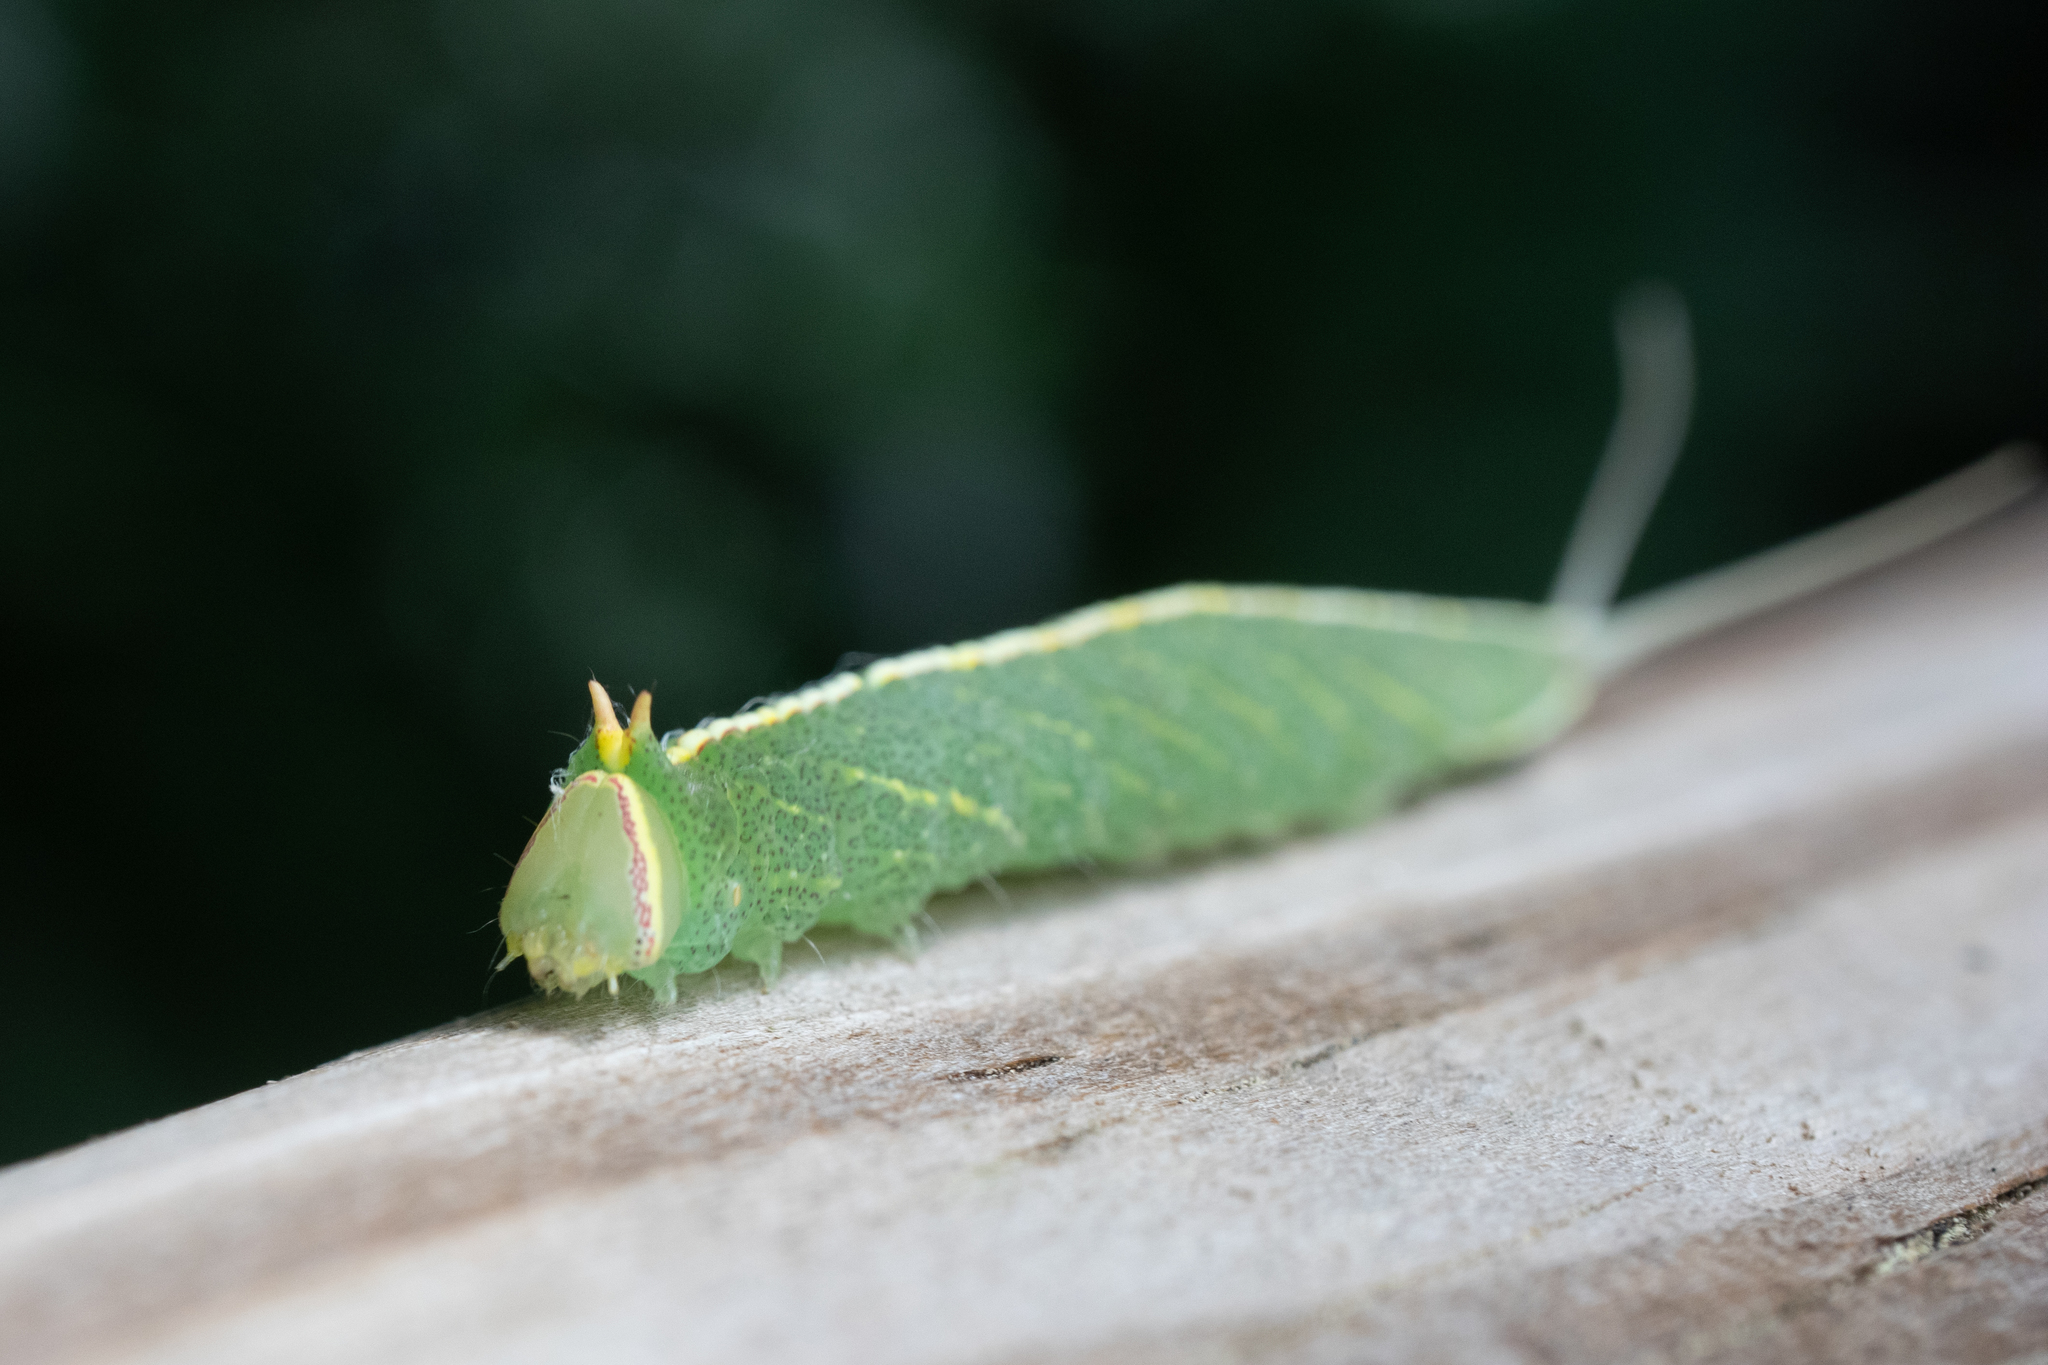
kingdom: Animalia
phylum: Arthropoda
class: Insecta
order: Lepidoptera
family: Notodontidae
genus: Macrurocampa
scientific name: Macrurocampa marthesia
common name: Mottled prominent
